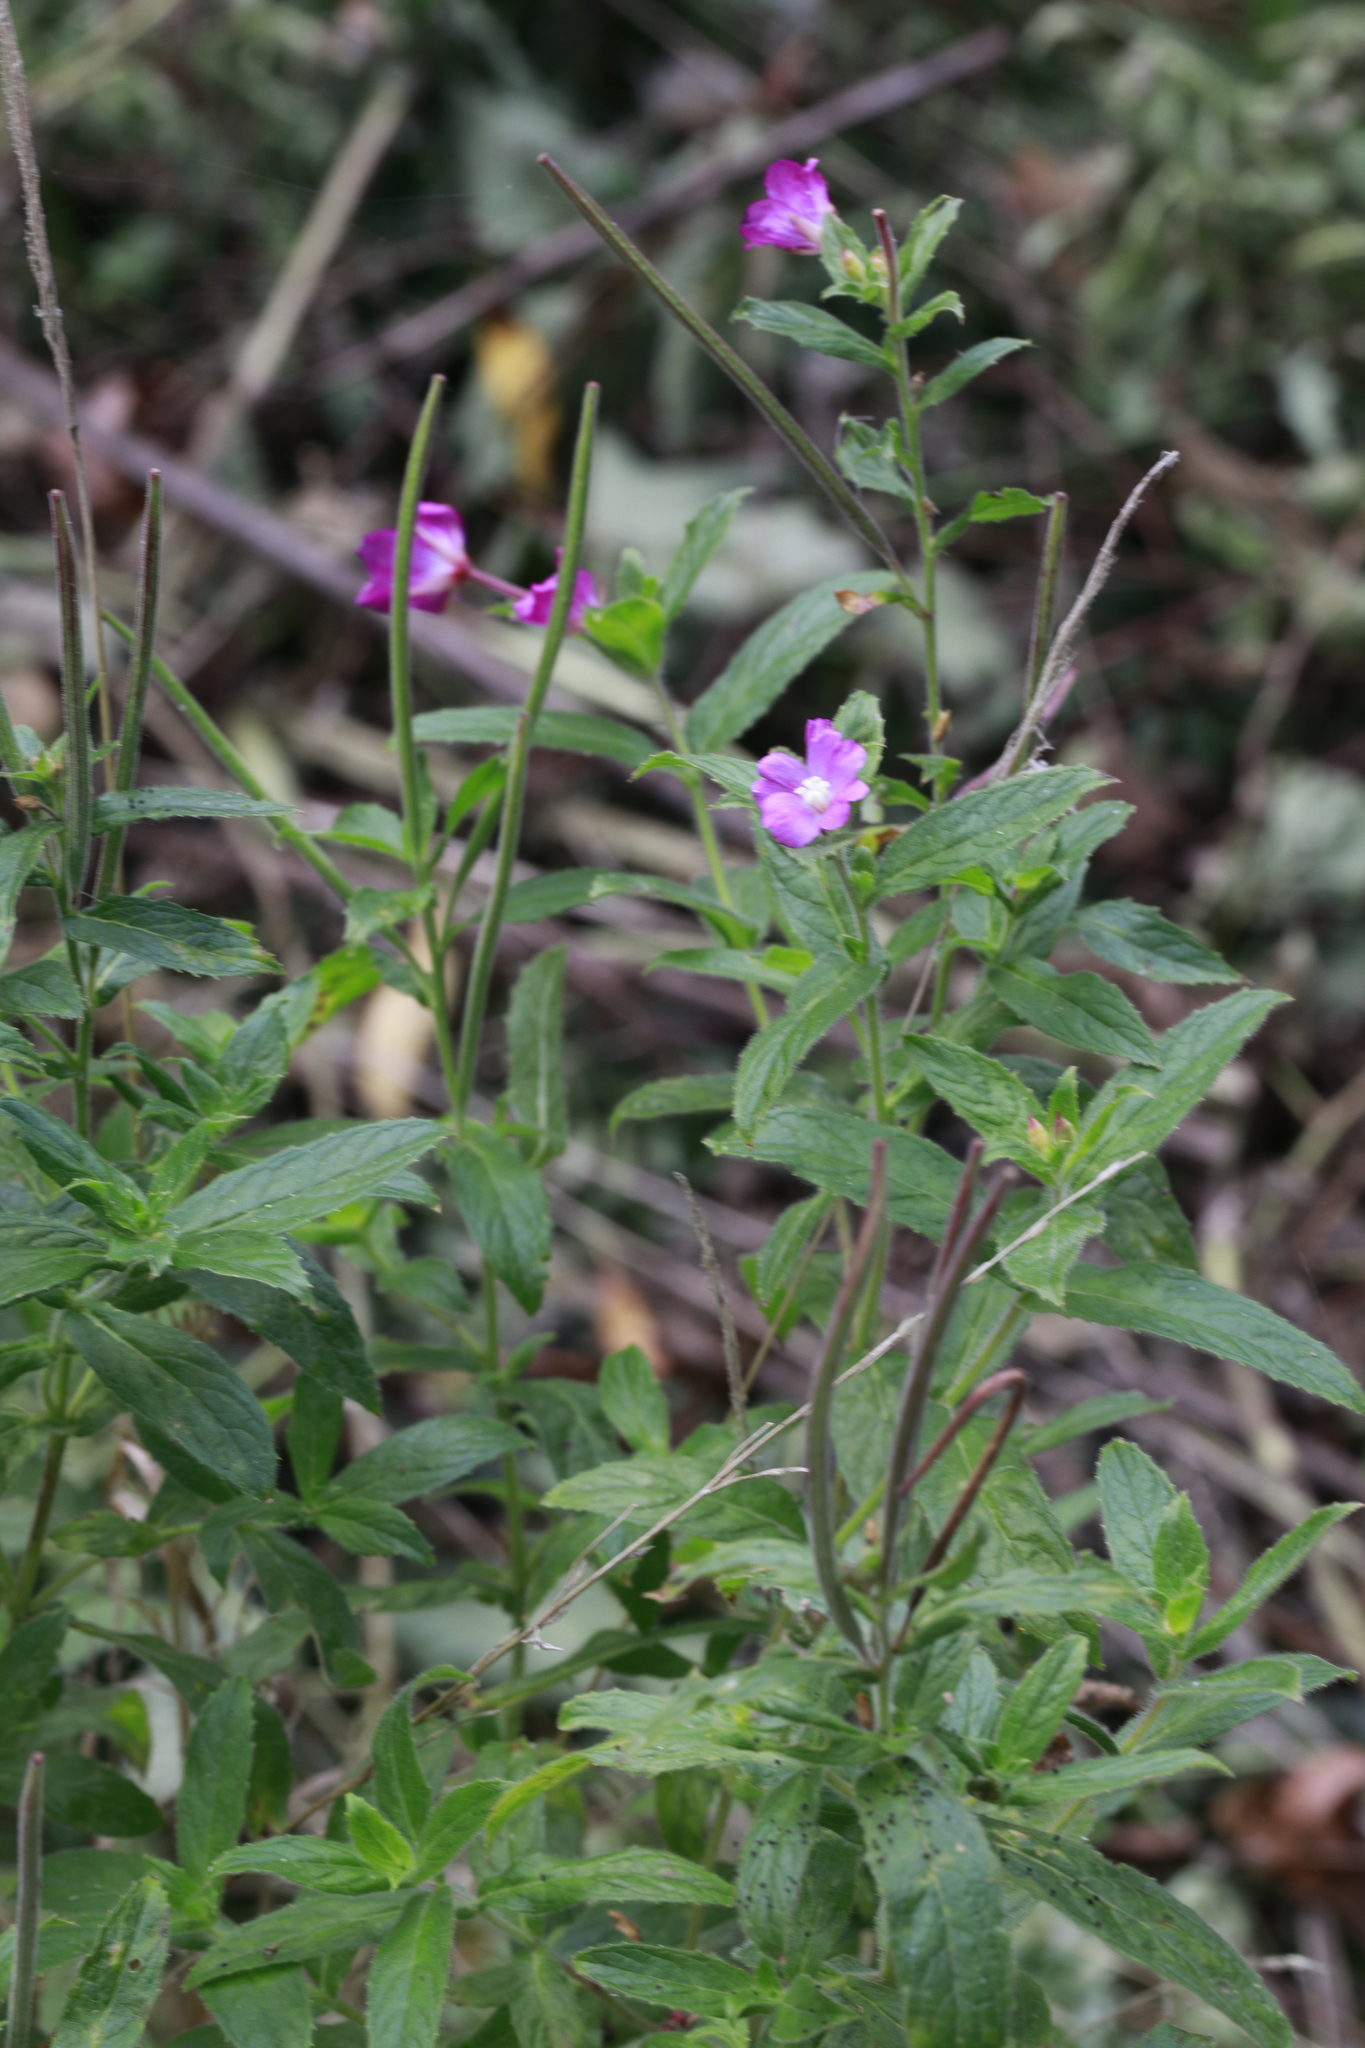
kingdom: Plantae
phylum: Tracheophyta
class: Magnoliopsida
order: Myrtales
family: Onagraceae
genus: Epilobium
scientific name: Epilobium hirsutum
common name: Great willowherb
